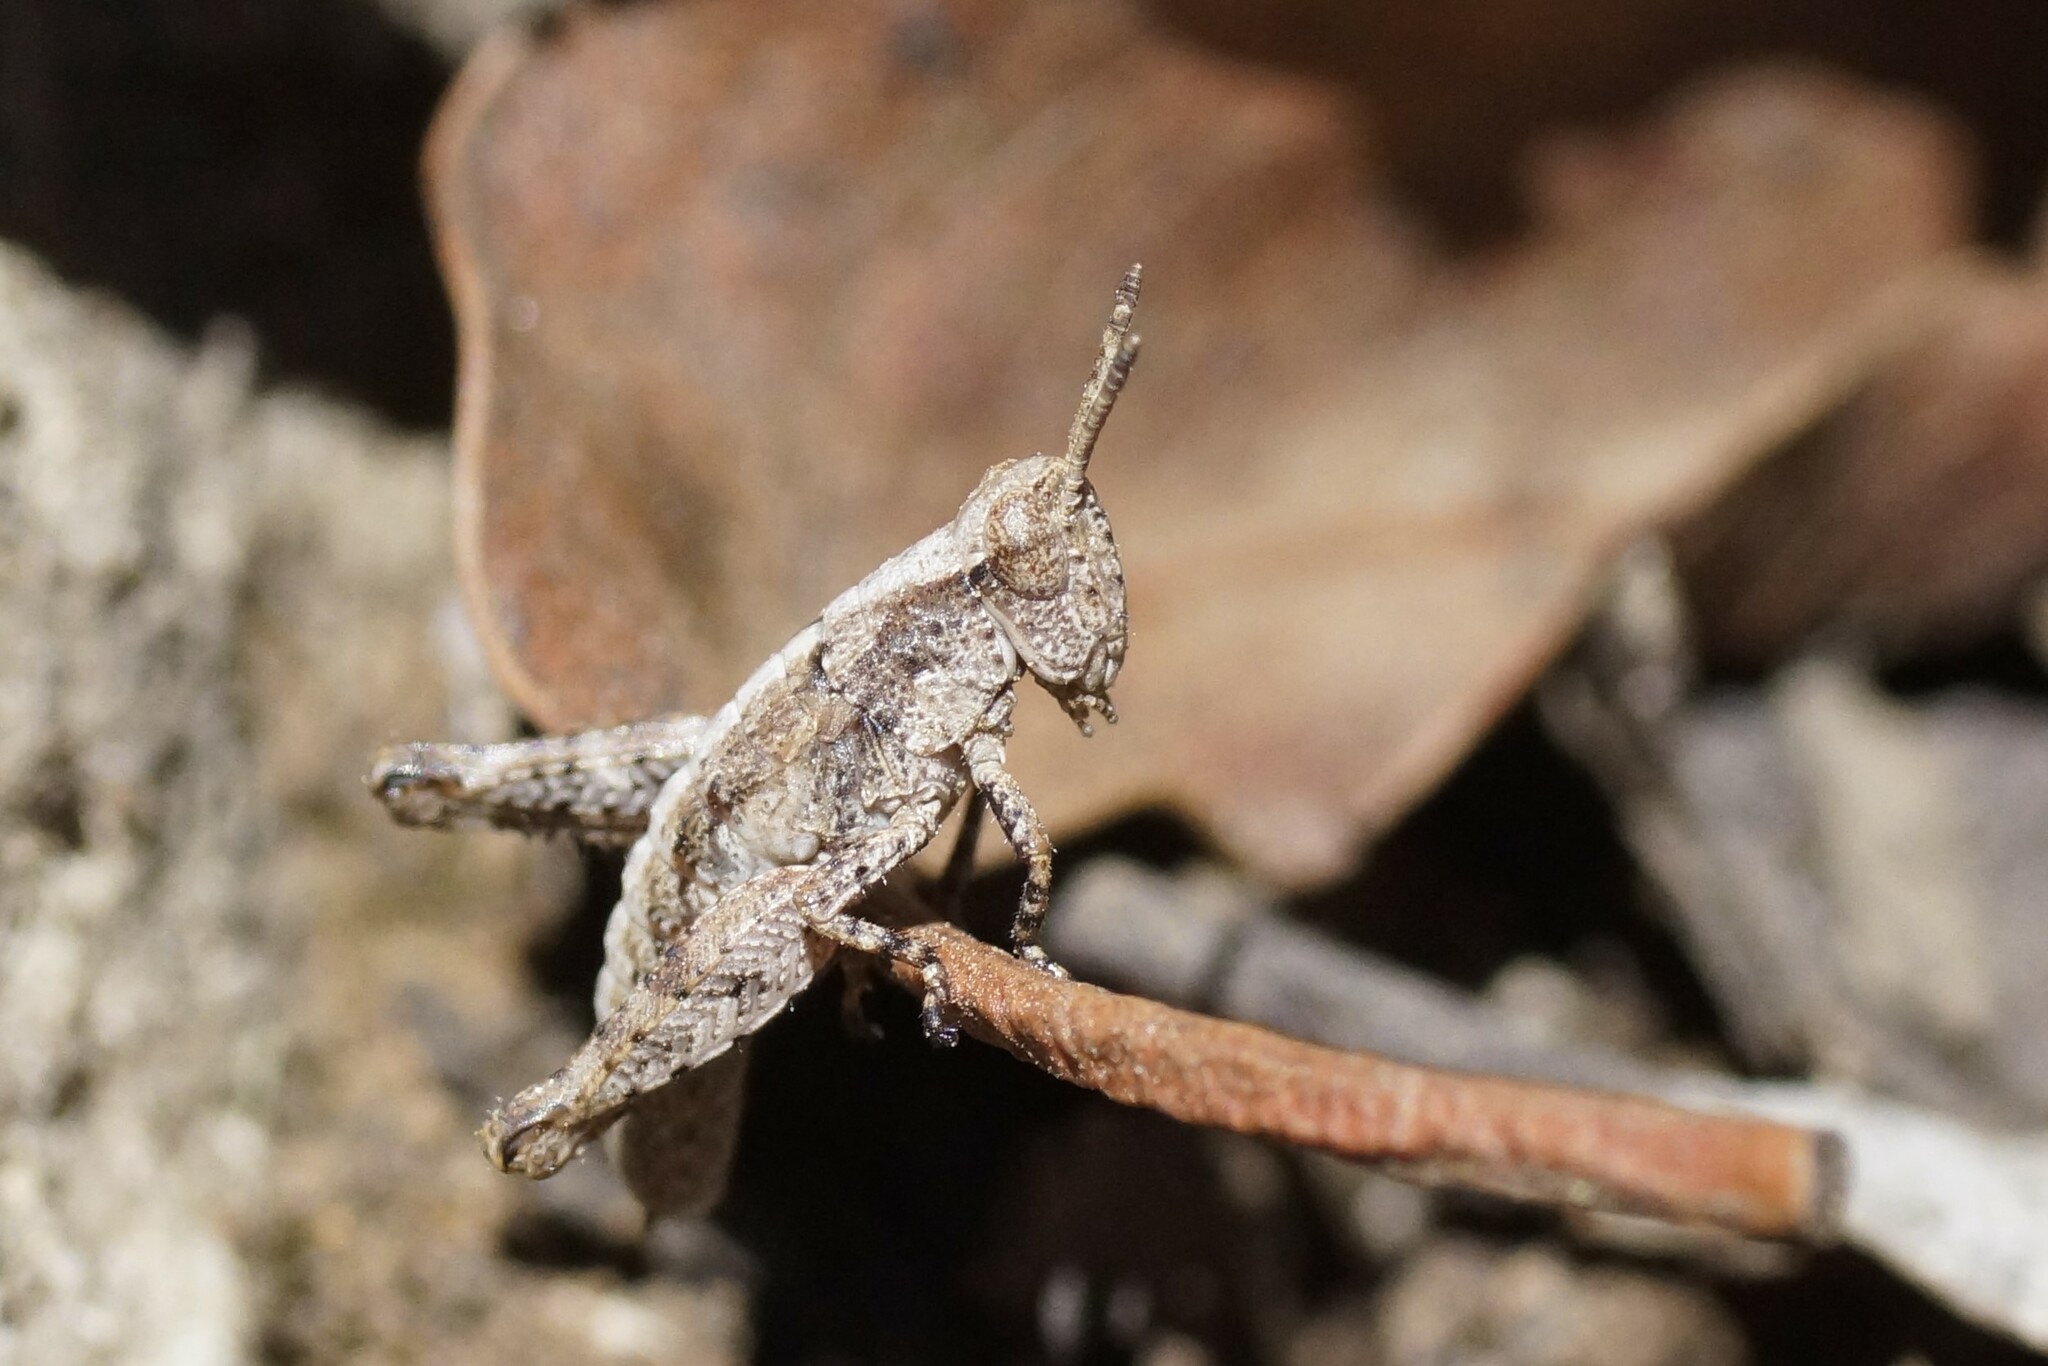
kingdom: Animalia
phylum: Arthropoda
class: Insecta
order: Orthoptera
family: Acrididae
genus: Tasmaniacris
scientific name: Tasmaniacris tasmaniensis
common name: Tasmanian grasshopper
